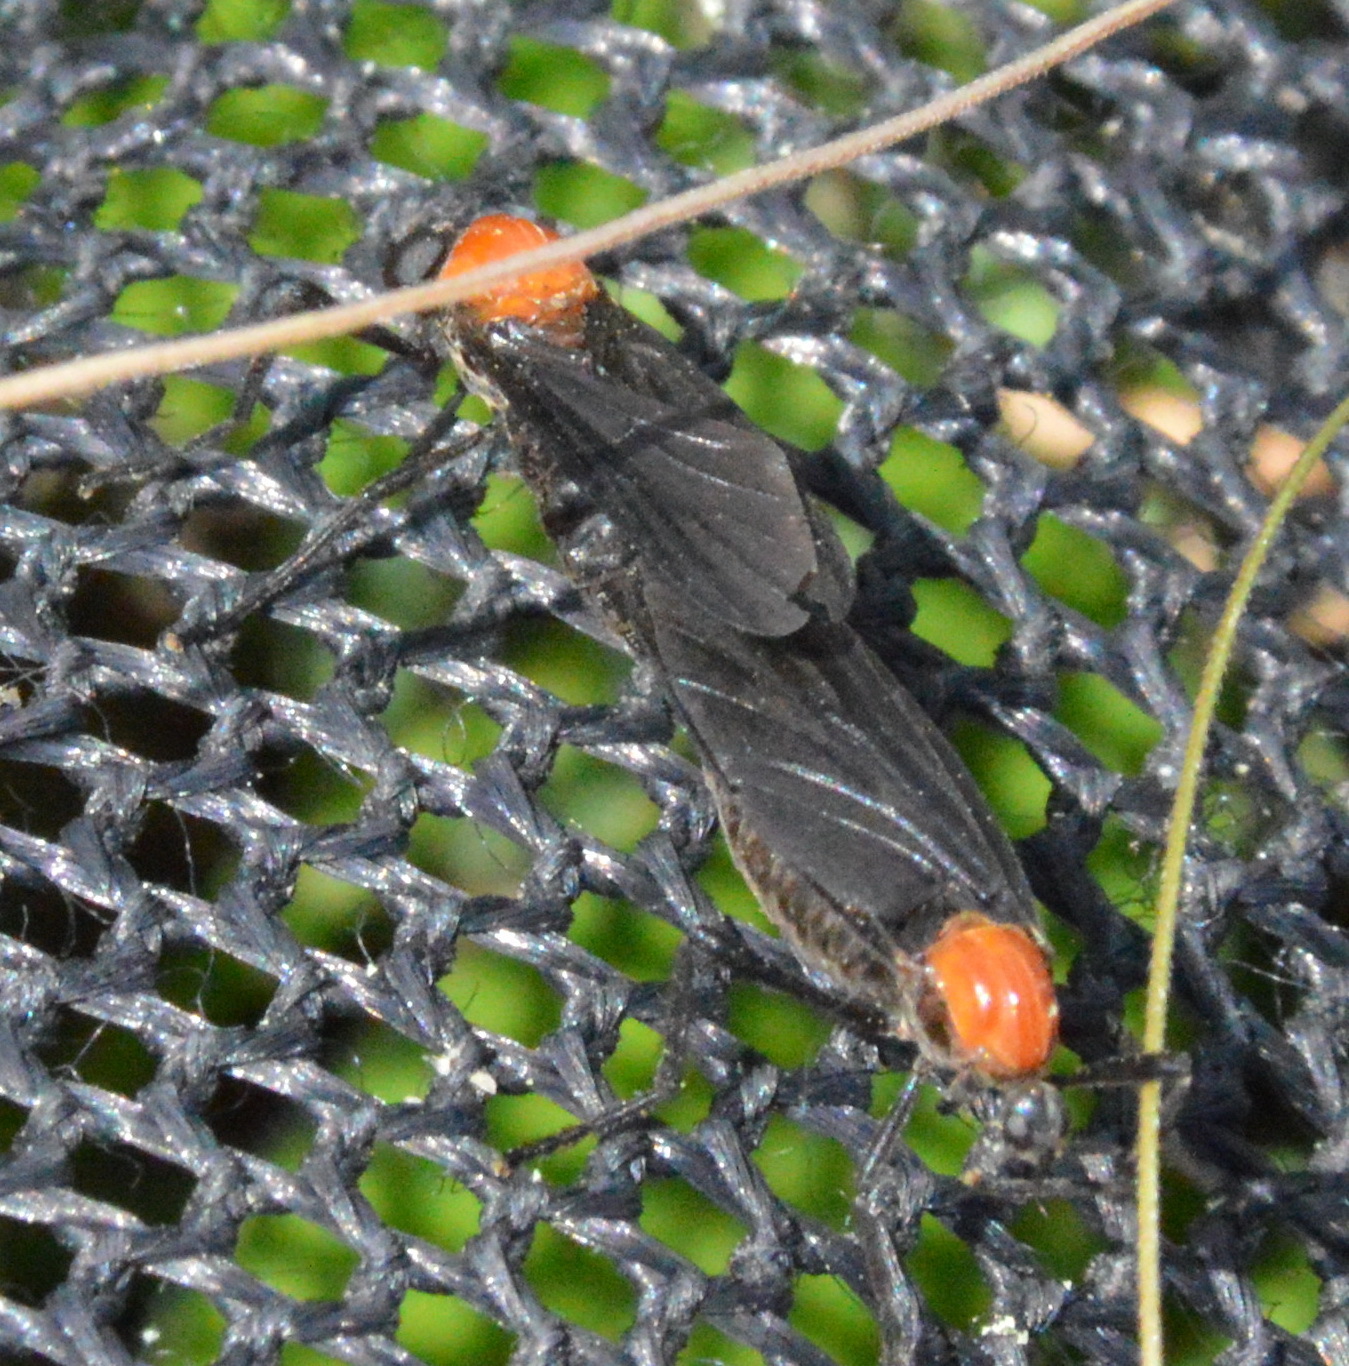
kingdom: Animalia
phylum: Arthropoda
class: Insecta
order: Diptera
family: Bibionidae
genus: Plecia
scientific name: Plecia nearctica
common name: March fly
